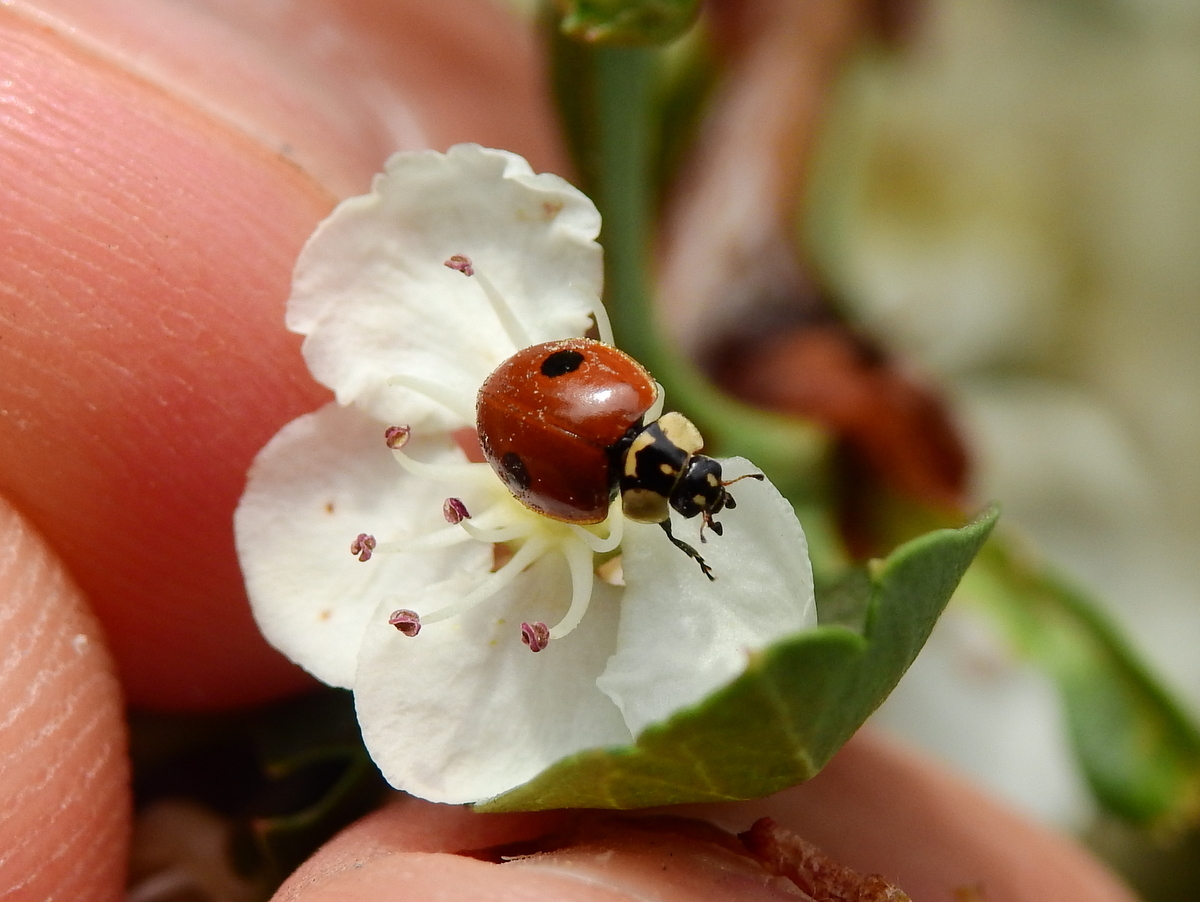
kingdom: Animalia
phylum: Arthropoda
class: Insecta
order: Coleoptera
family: Coccinellidae
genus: Adalia
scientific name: Adalia bipunctata
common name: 2-spot ladybird
